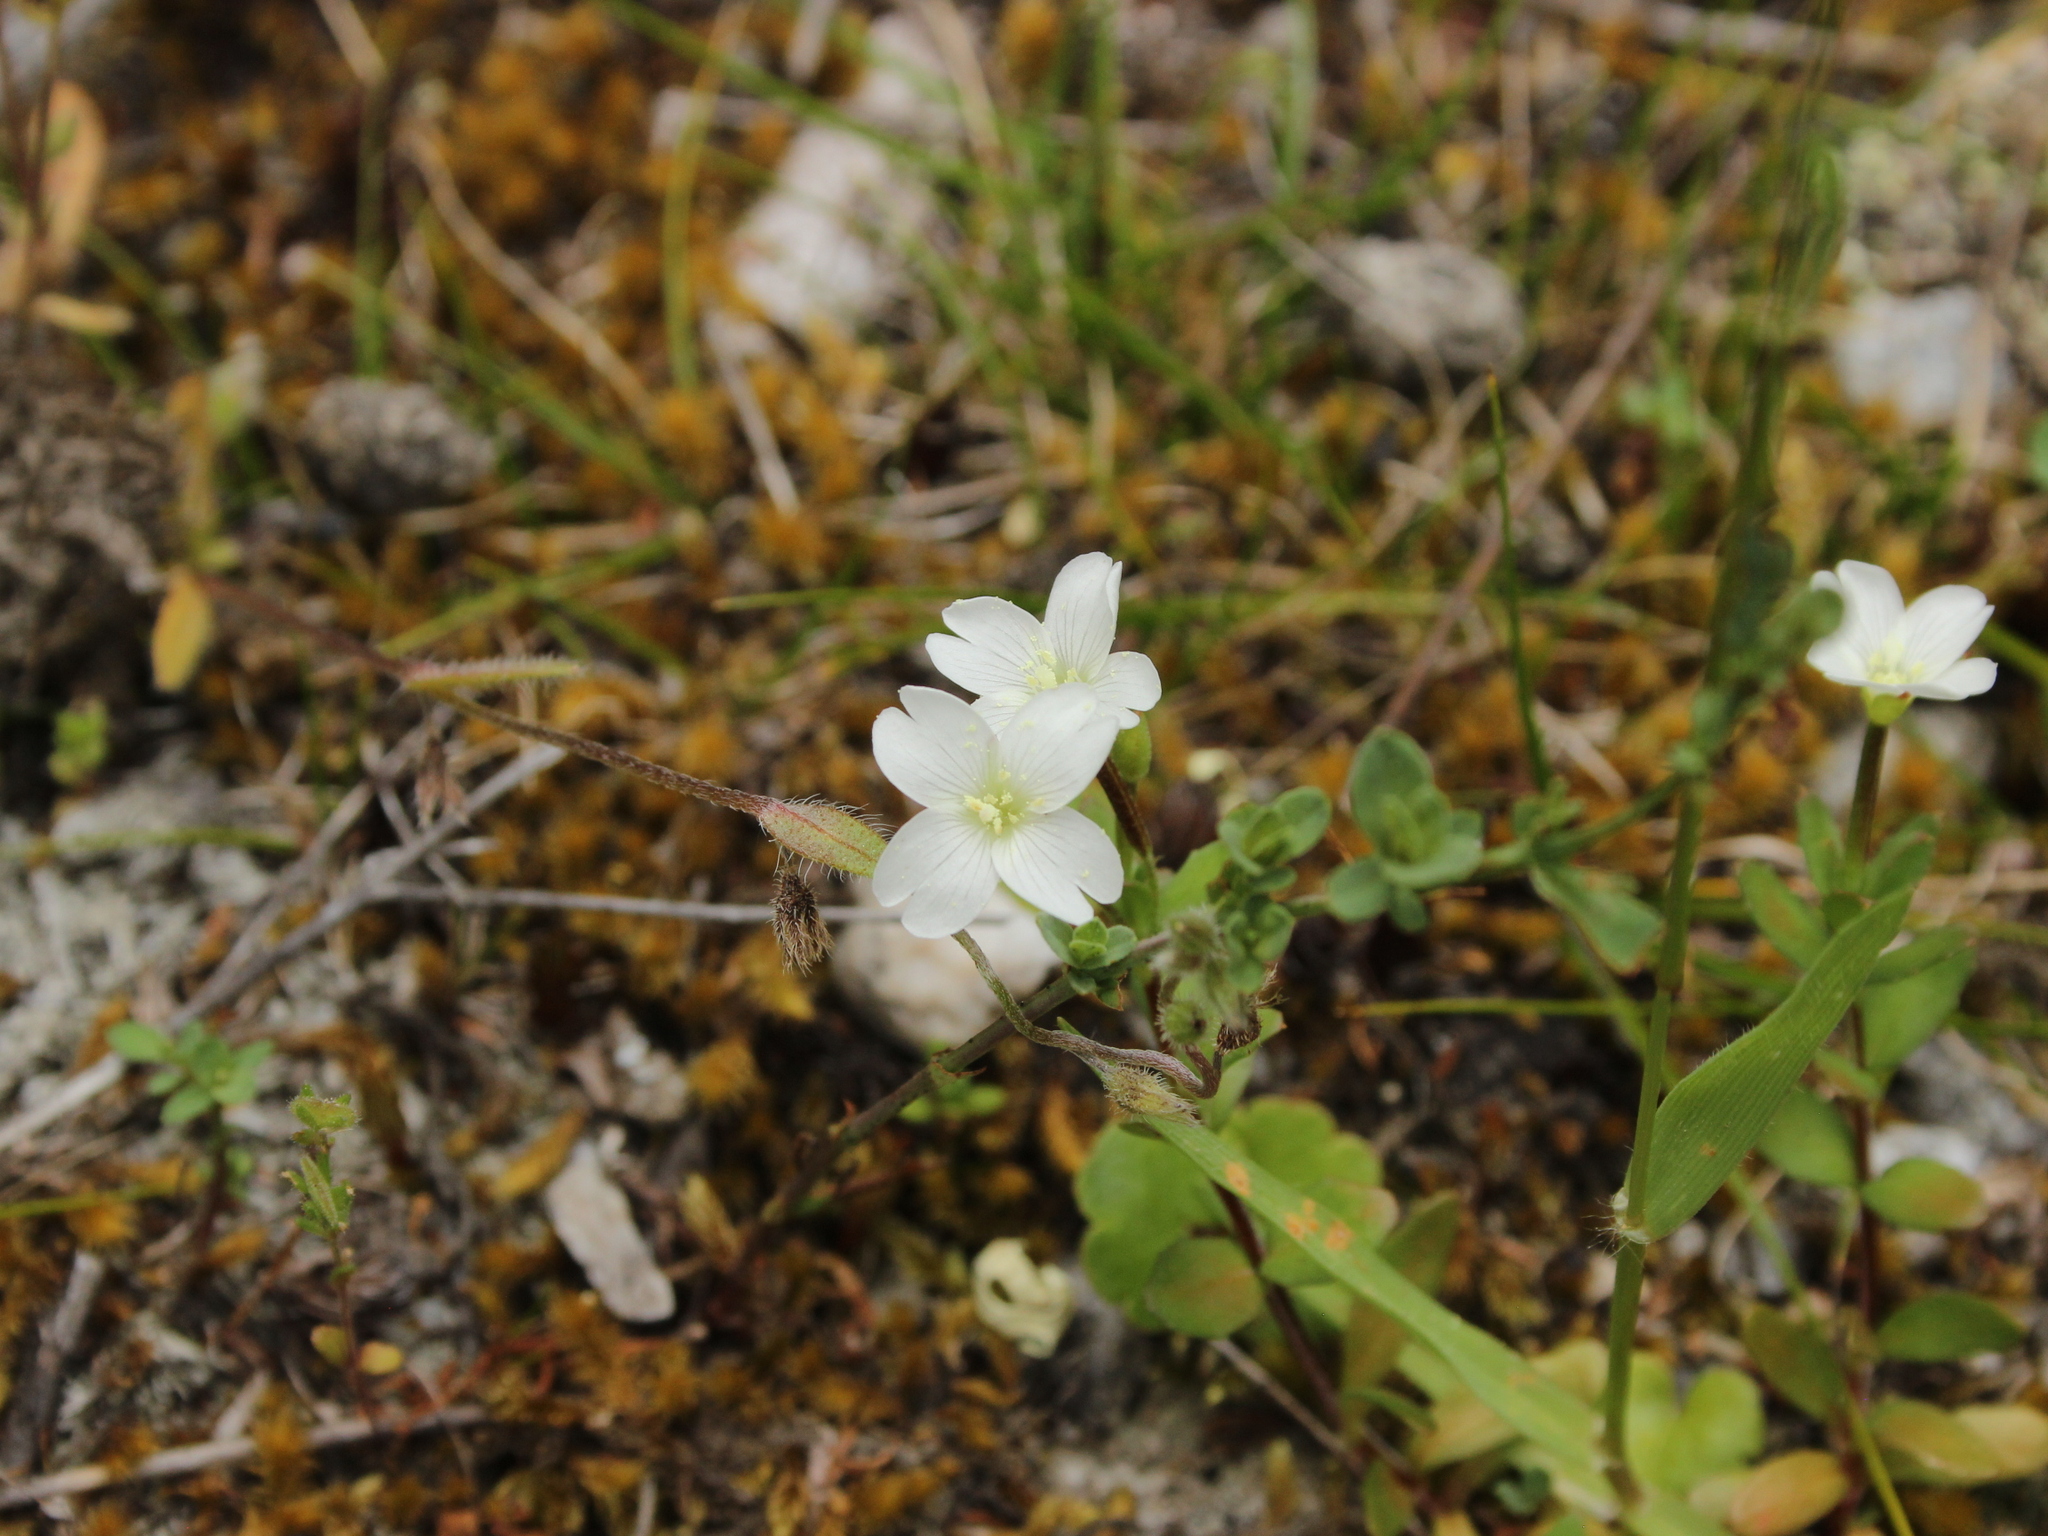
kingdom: Plantae
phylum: Tracheophyta
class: Magnoliopsida
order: Myrtales
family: Onagraceae
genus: Epilobium
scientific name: Epilobium hectorii
